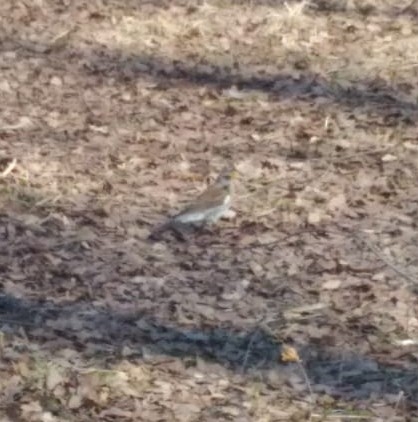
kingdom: Animalia
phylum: Chordata
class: Aves
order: Passeriformes
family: Turdidae
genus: Turdus
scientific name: Turdus pilaris
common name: Fieldfare
